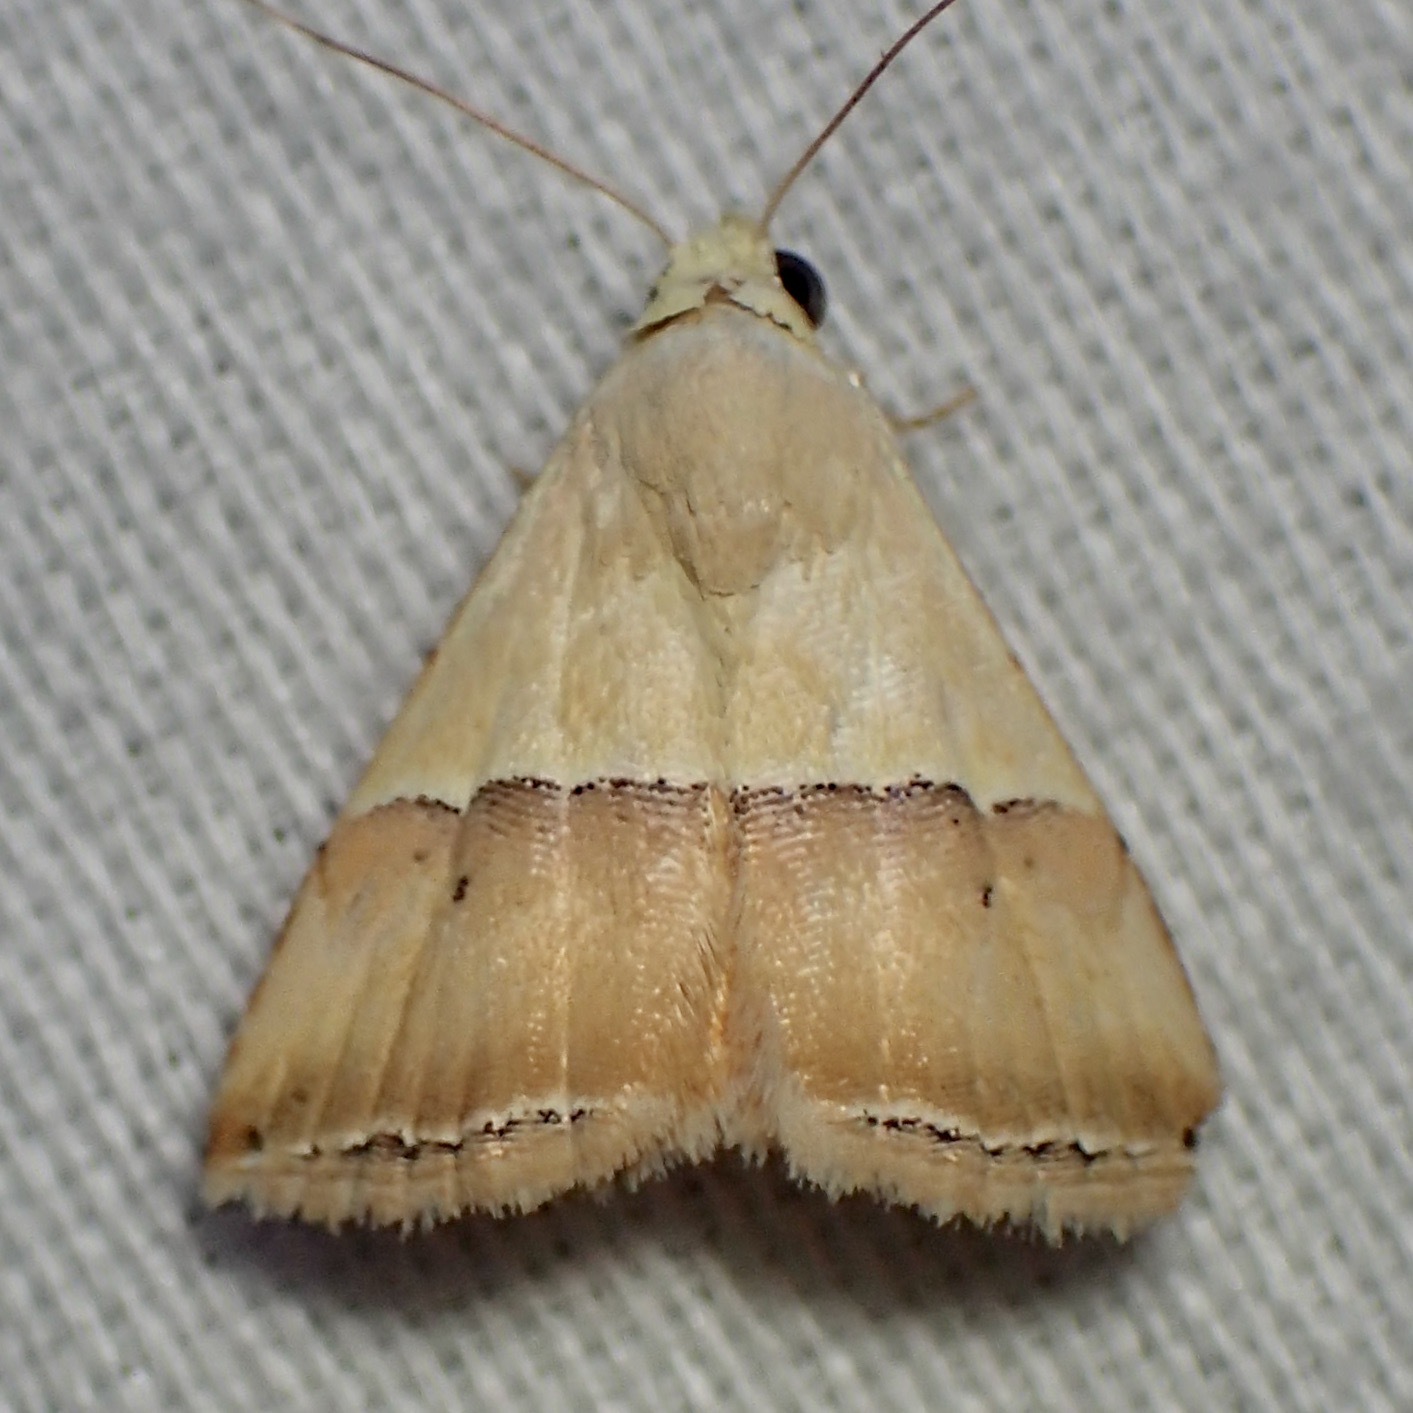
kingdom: Animalia
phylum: Arthropoda
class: Insecta
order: Lepidoptera
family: Noctuidae
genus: Eublemma
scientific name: Eublemma accedens
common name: Moth
